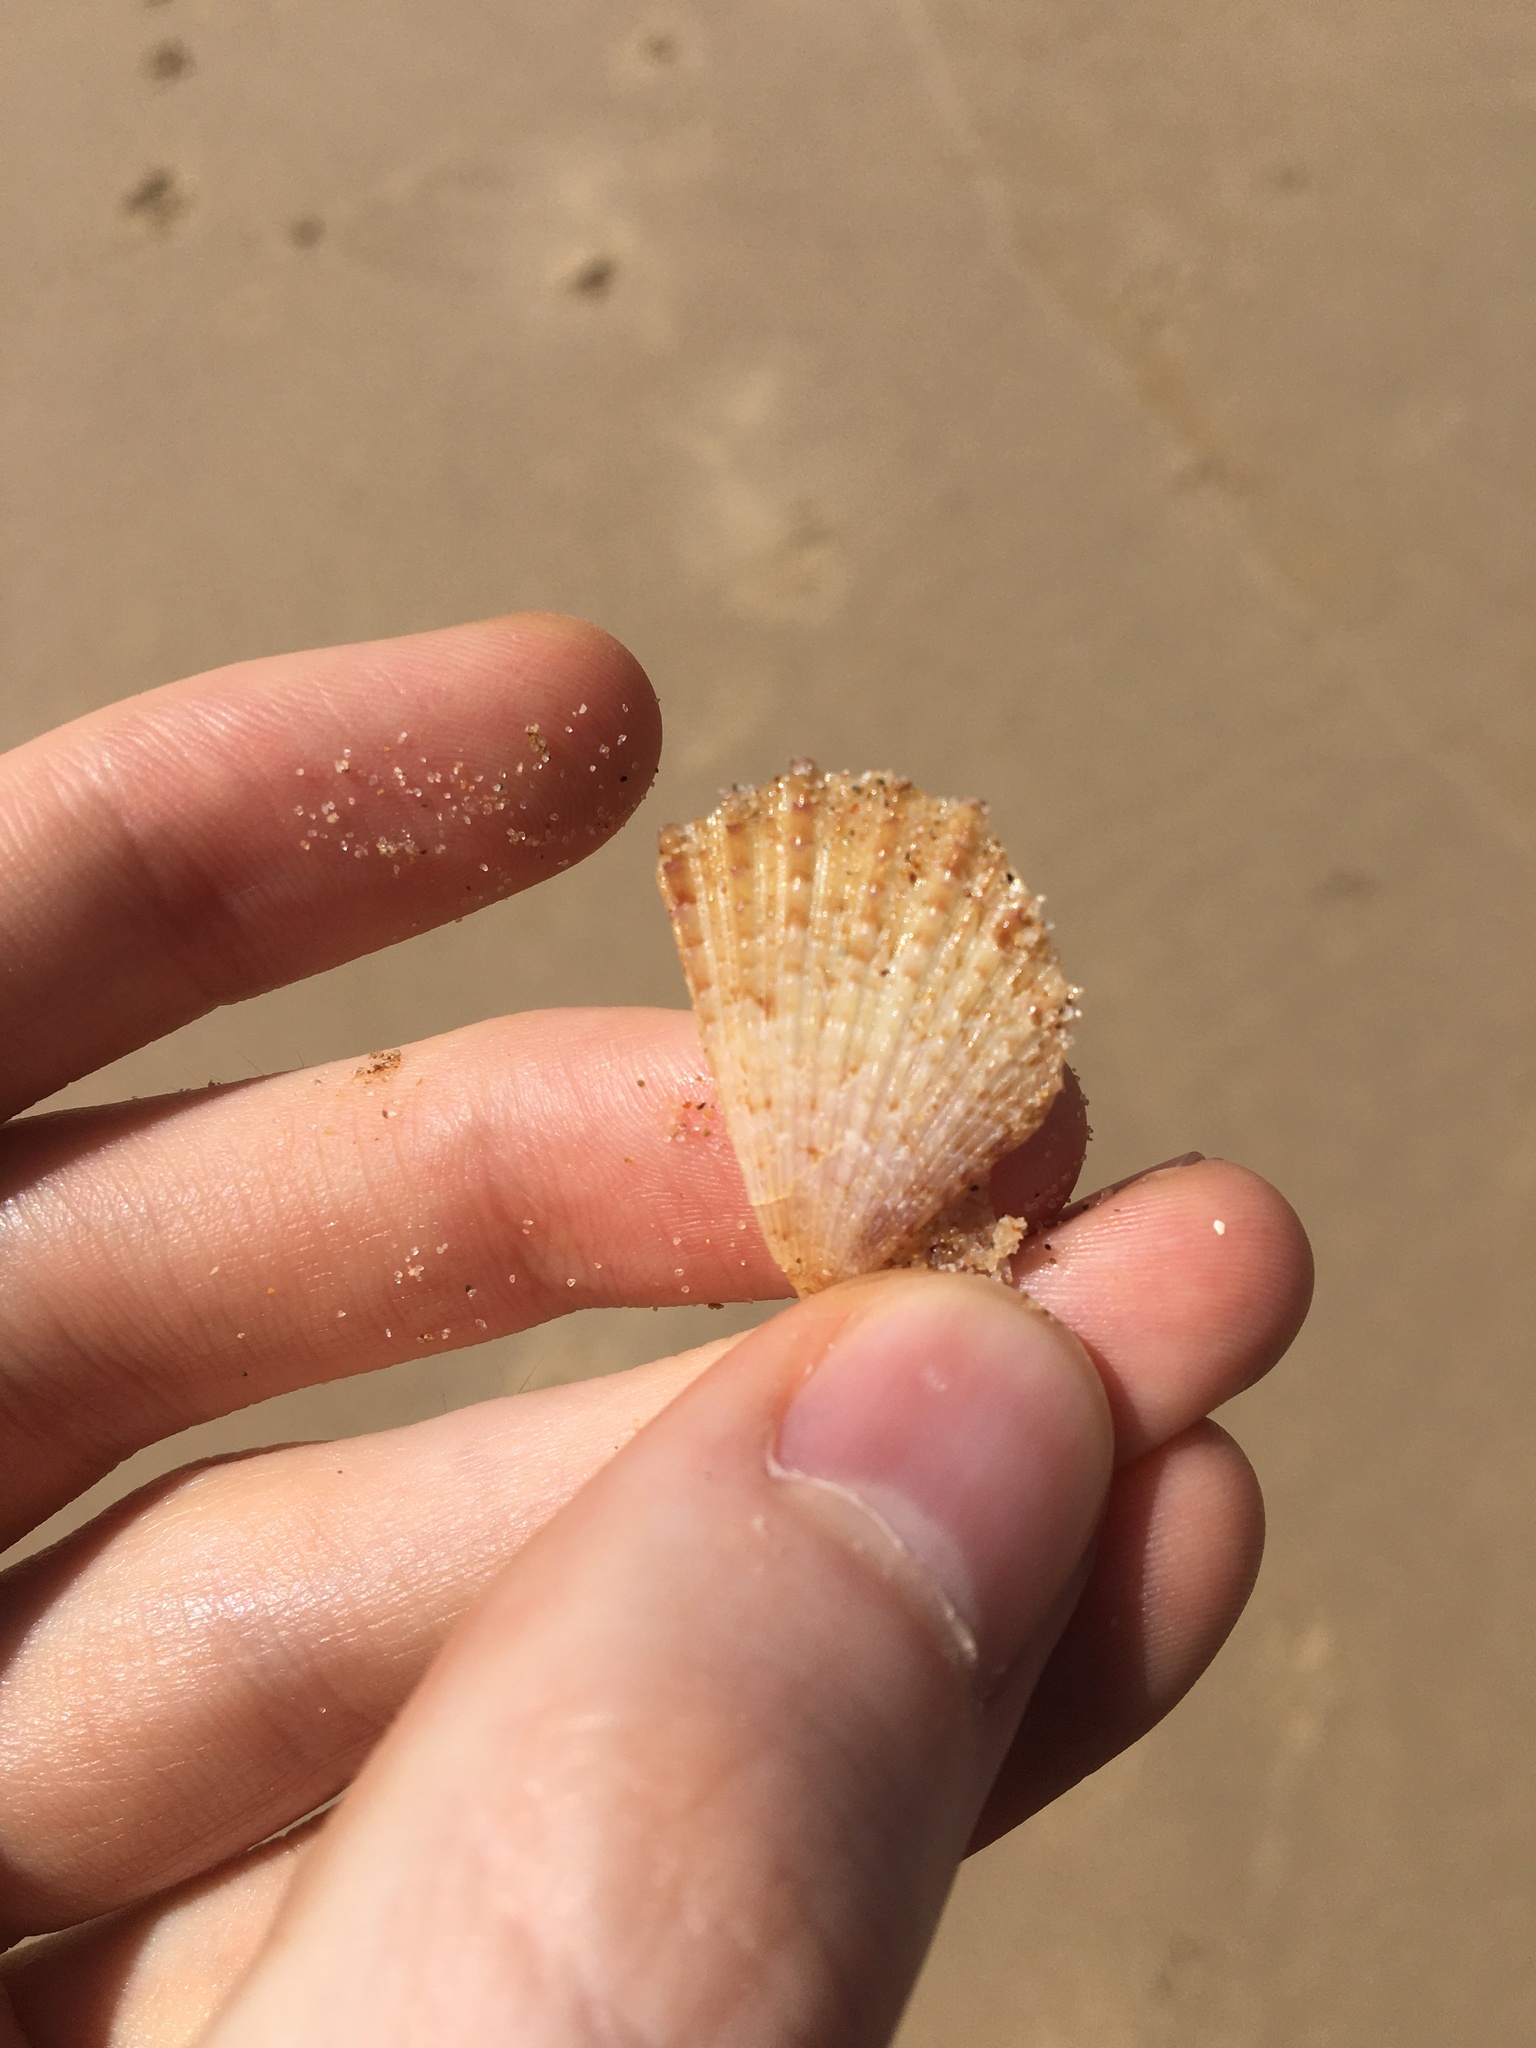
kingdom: Animalia
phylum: Mollusca
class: Bivalvia
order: Pectinida
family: Pectinidae
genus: Scaeochlamys
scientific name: Scaeochlamys livida
